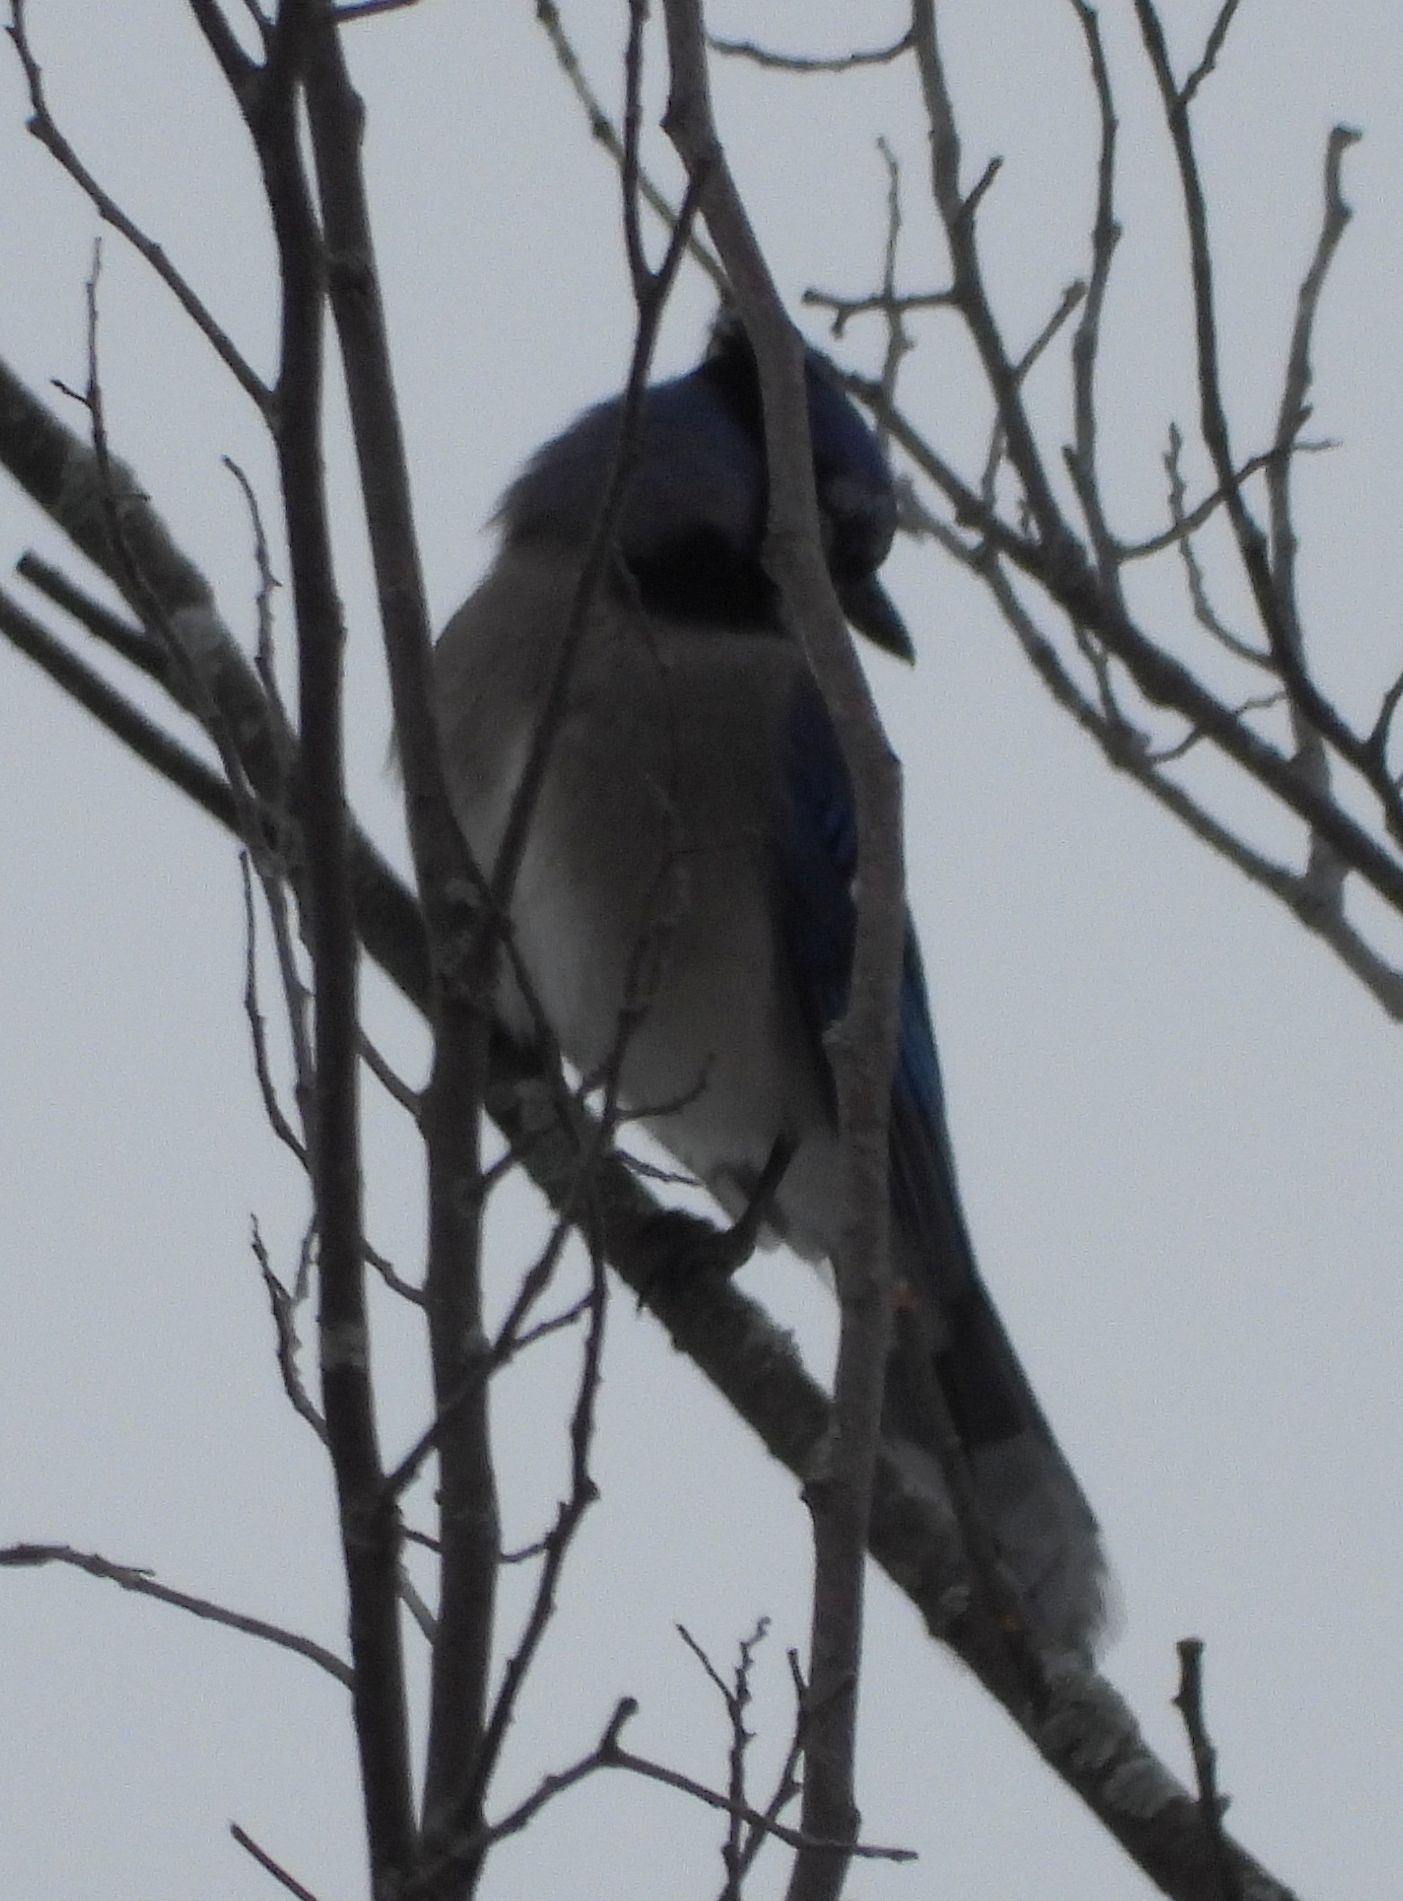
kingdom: Animalia
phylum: Chordata
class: Aves
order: Passeriformes
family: Corvidae
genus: Cyanocitta
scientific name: Cyanocitta cristata
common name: Blue jay
